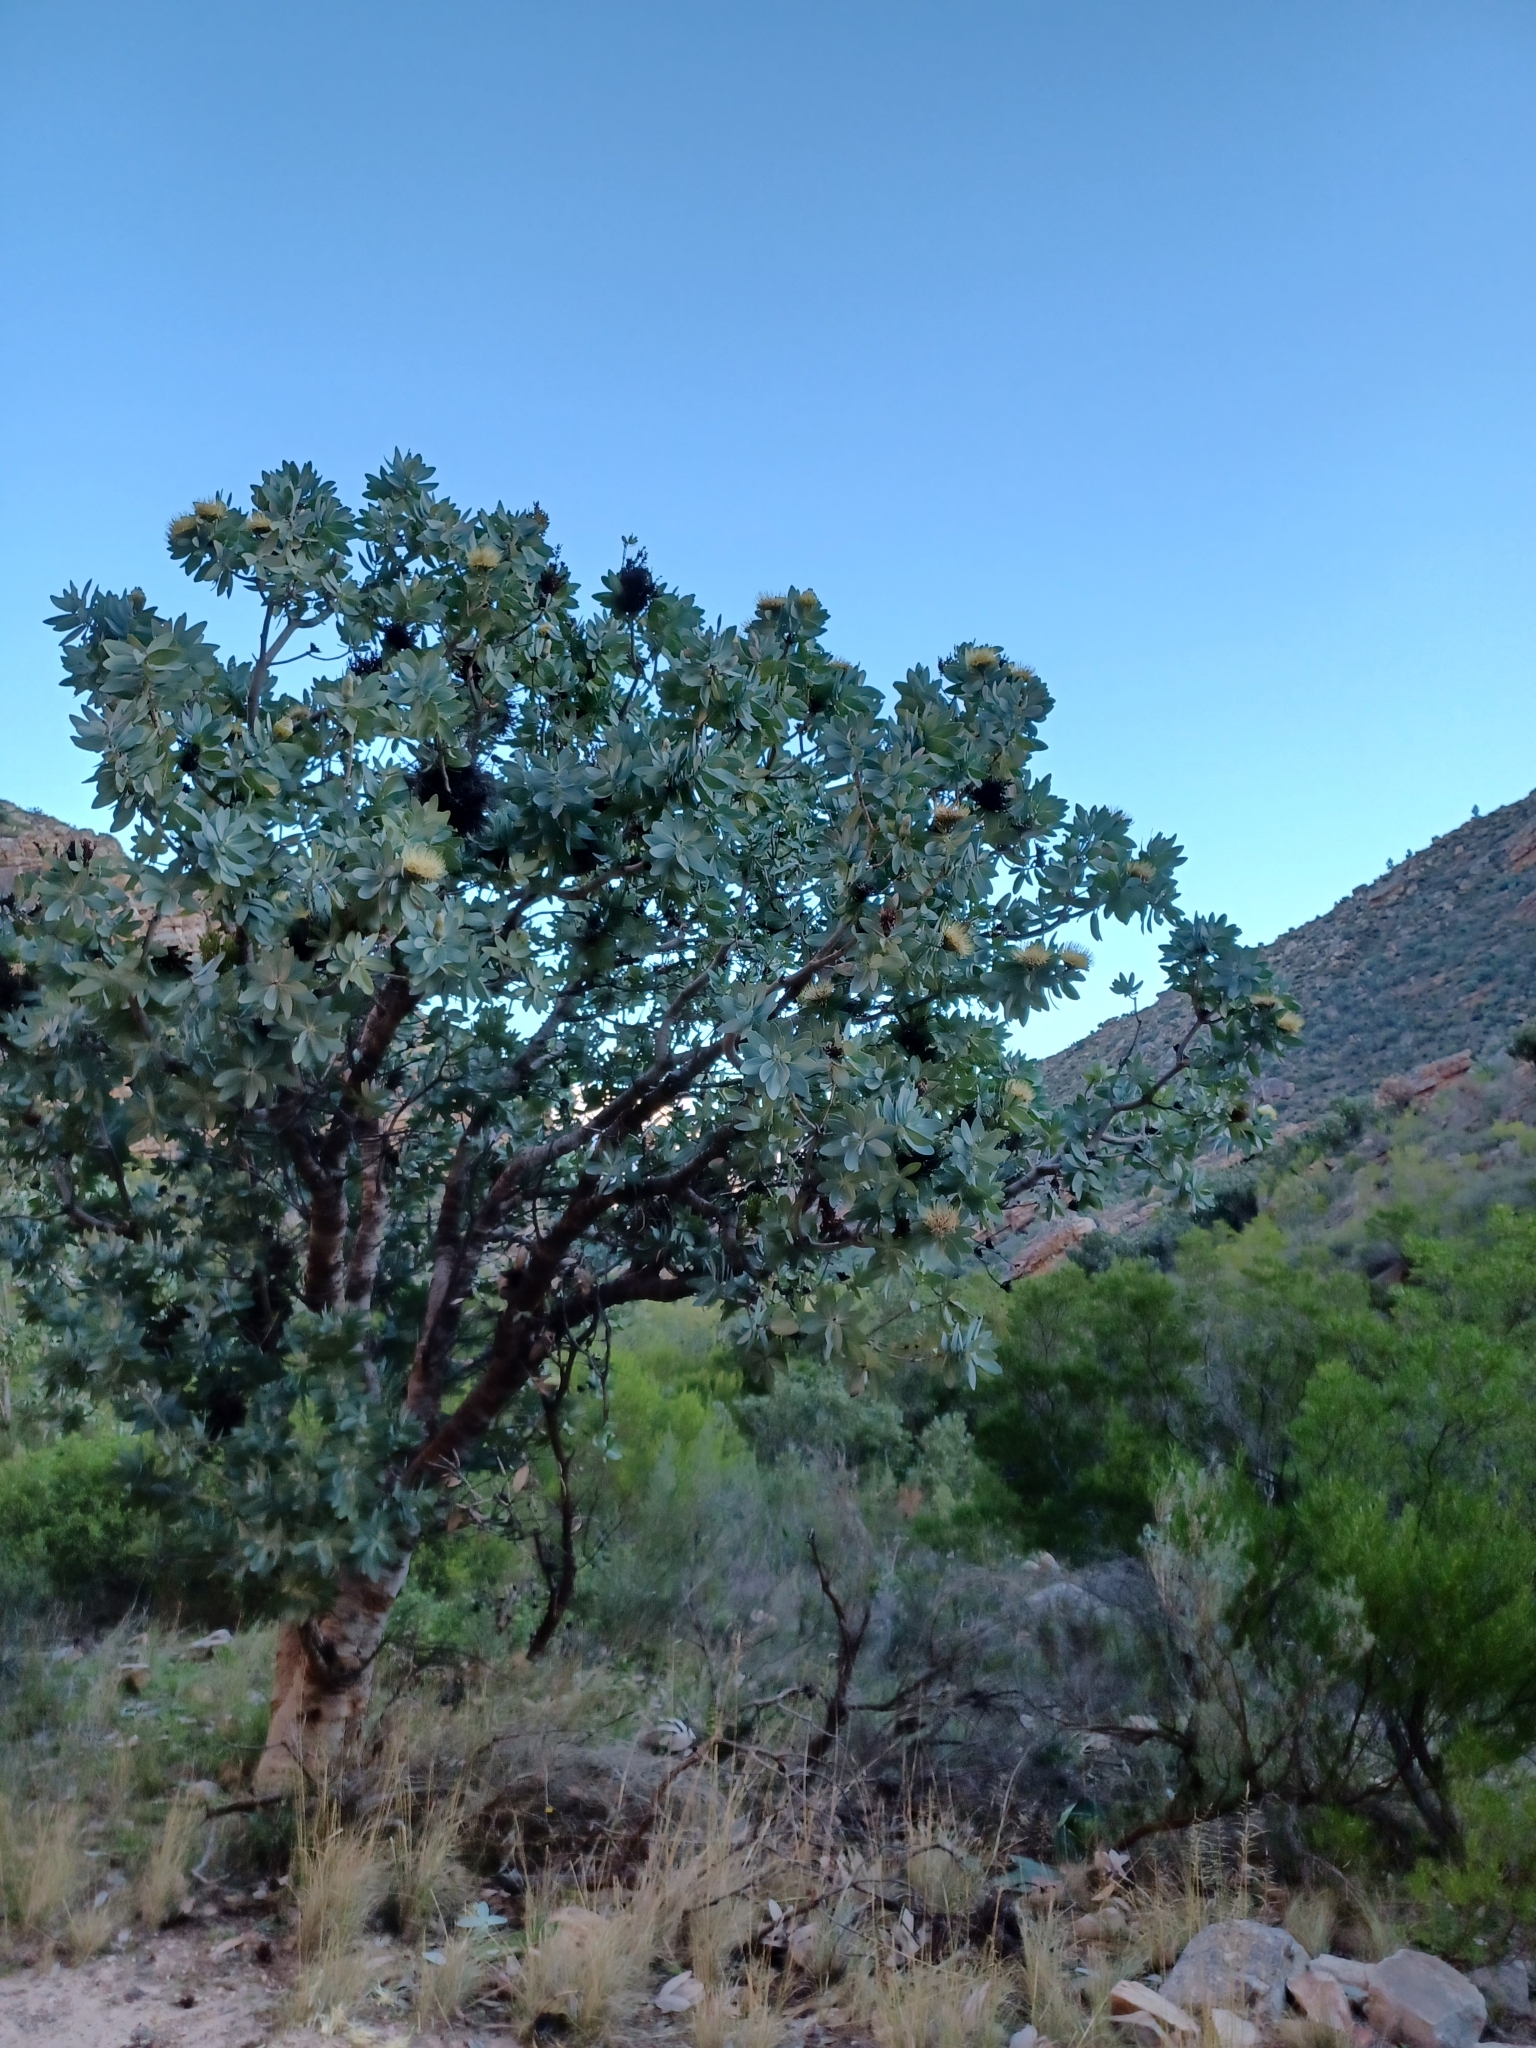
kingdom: Plantae
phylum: Tracheophyta
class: Magnoliopsida
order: Proteales
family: Proteaceae
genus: Protea
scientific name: Protea nitida
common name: Tree protea
